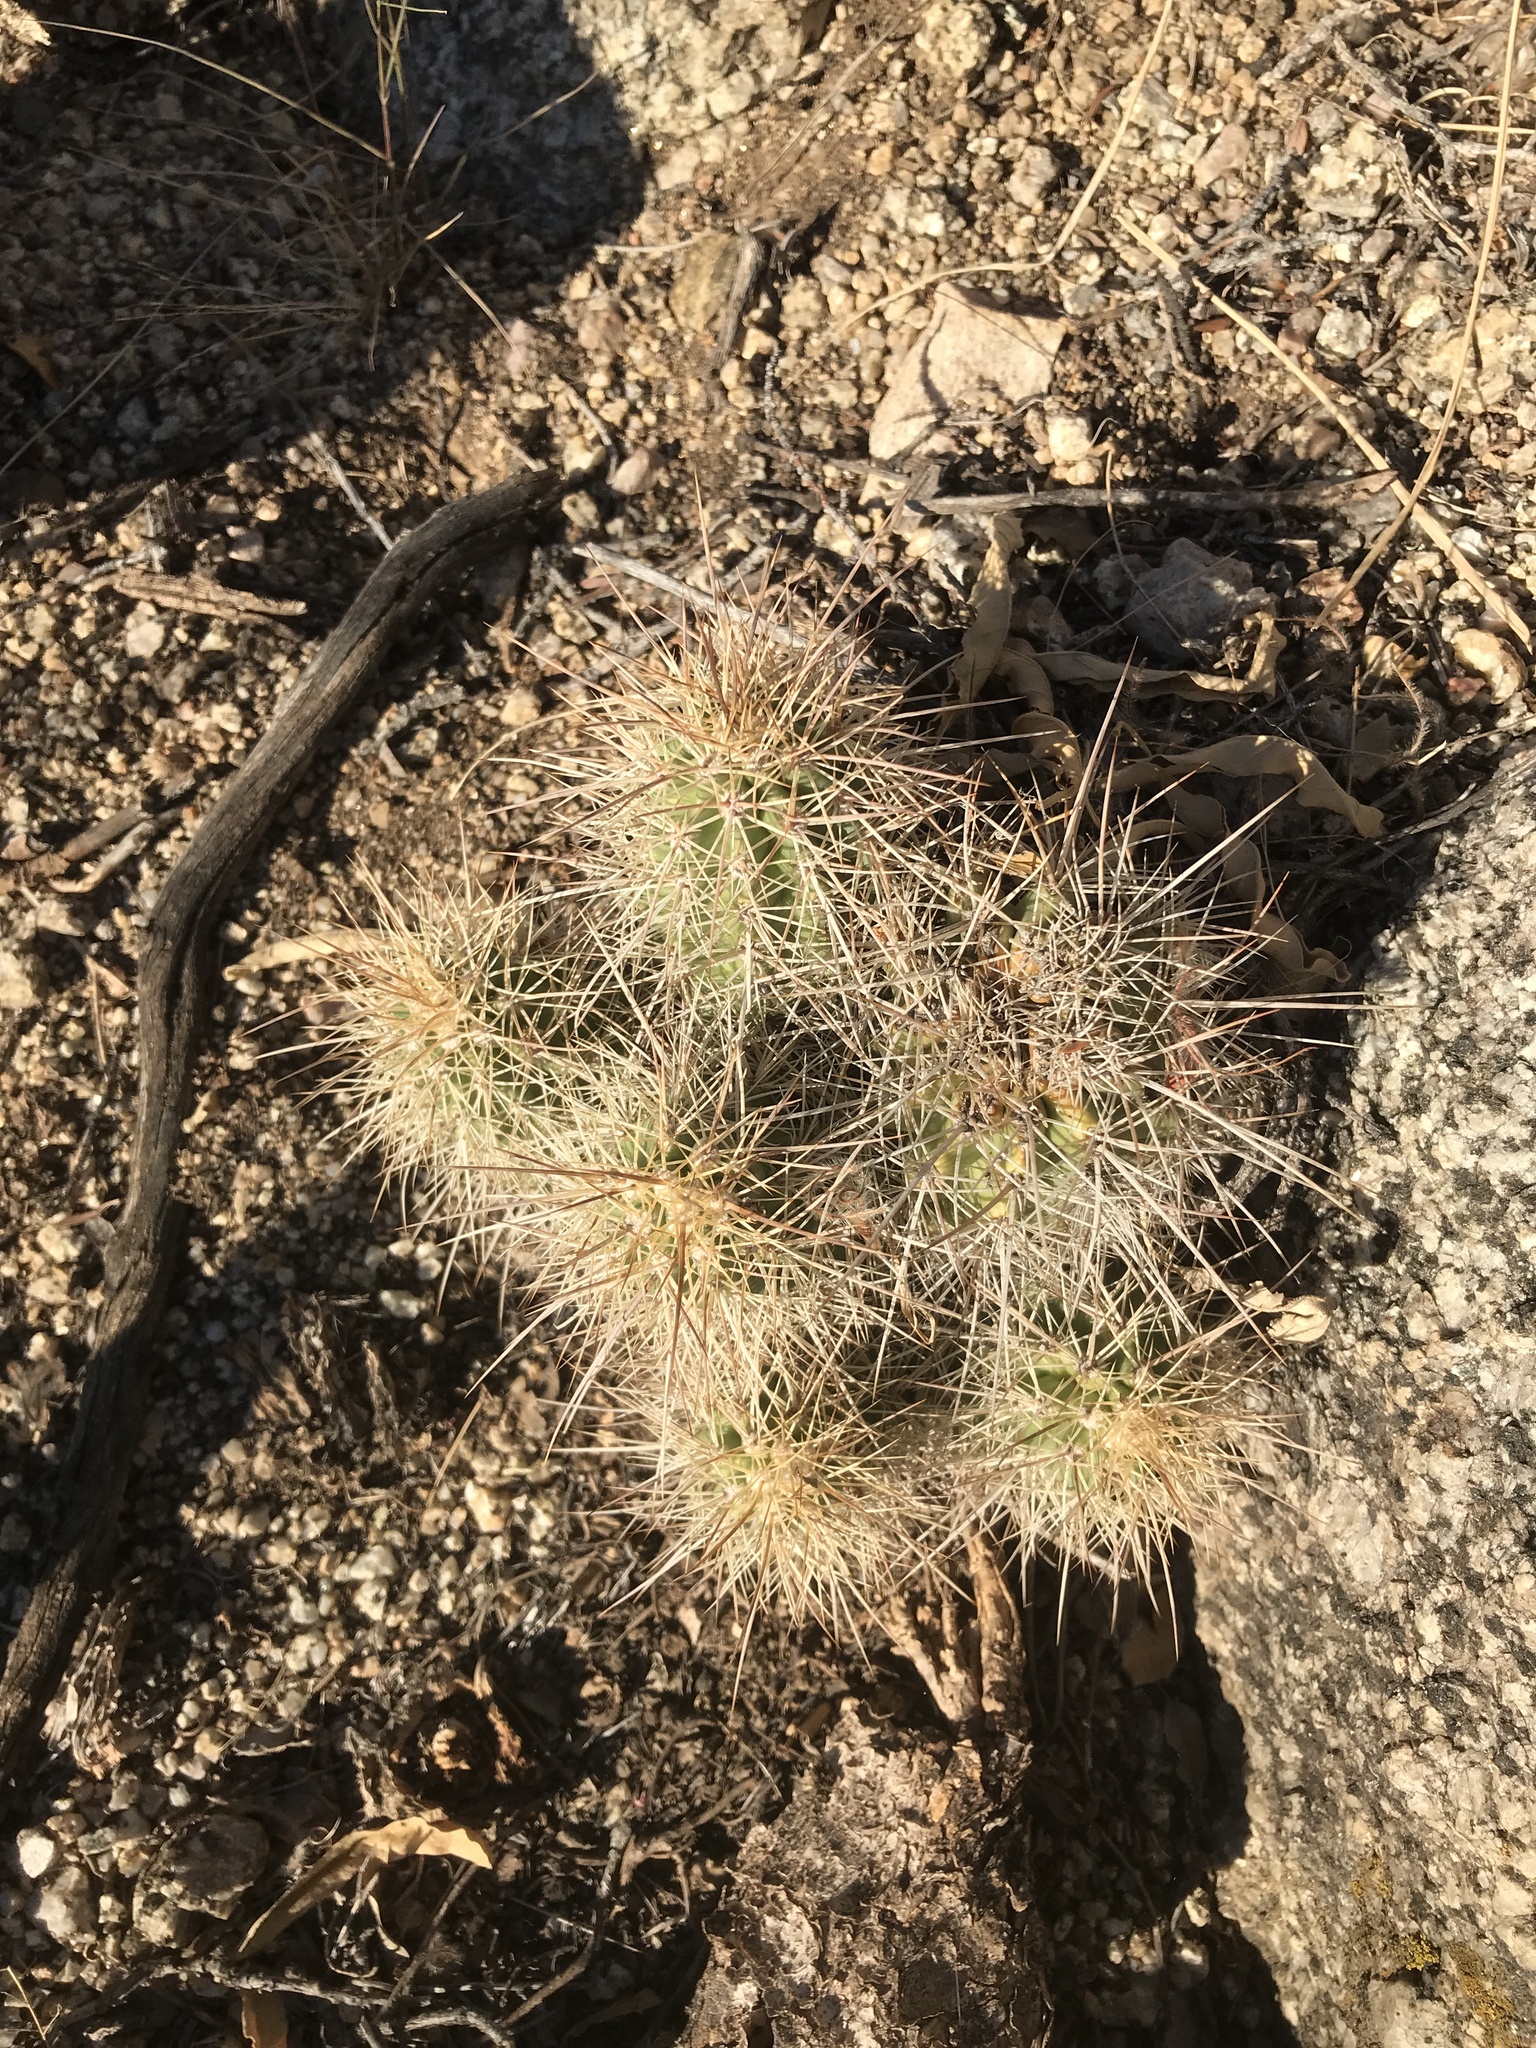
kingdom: Plantae
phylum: Tracheophyta
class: Magnoliopsida
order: Caryophyllales
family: Cactaceae
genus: Echinocereus
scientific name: Echinocereus coccineus
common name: Scarlet hedgehog cactus
